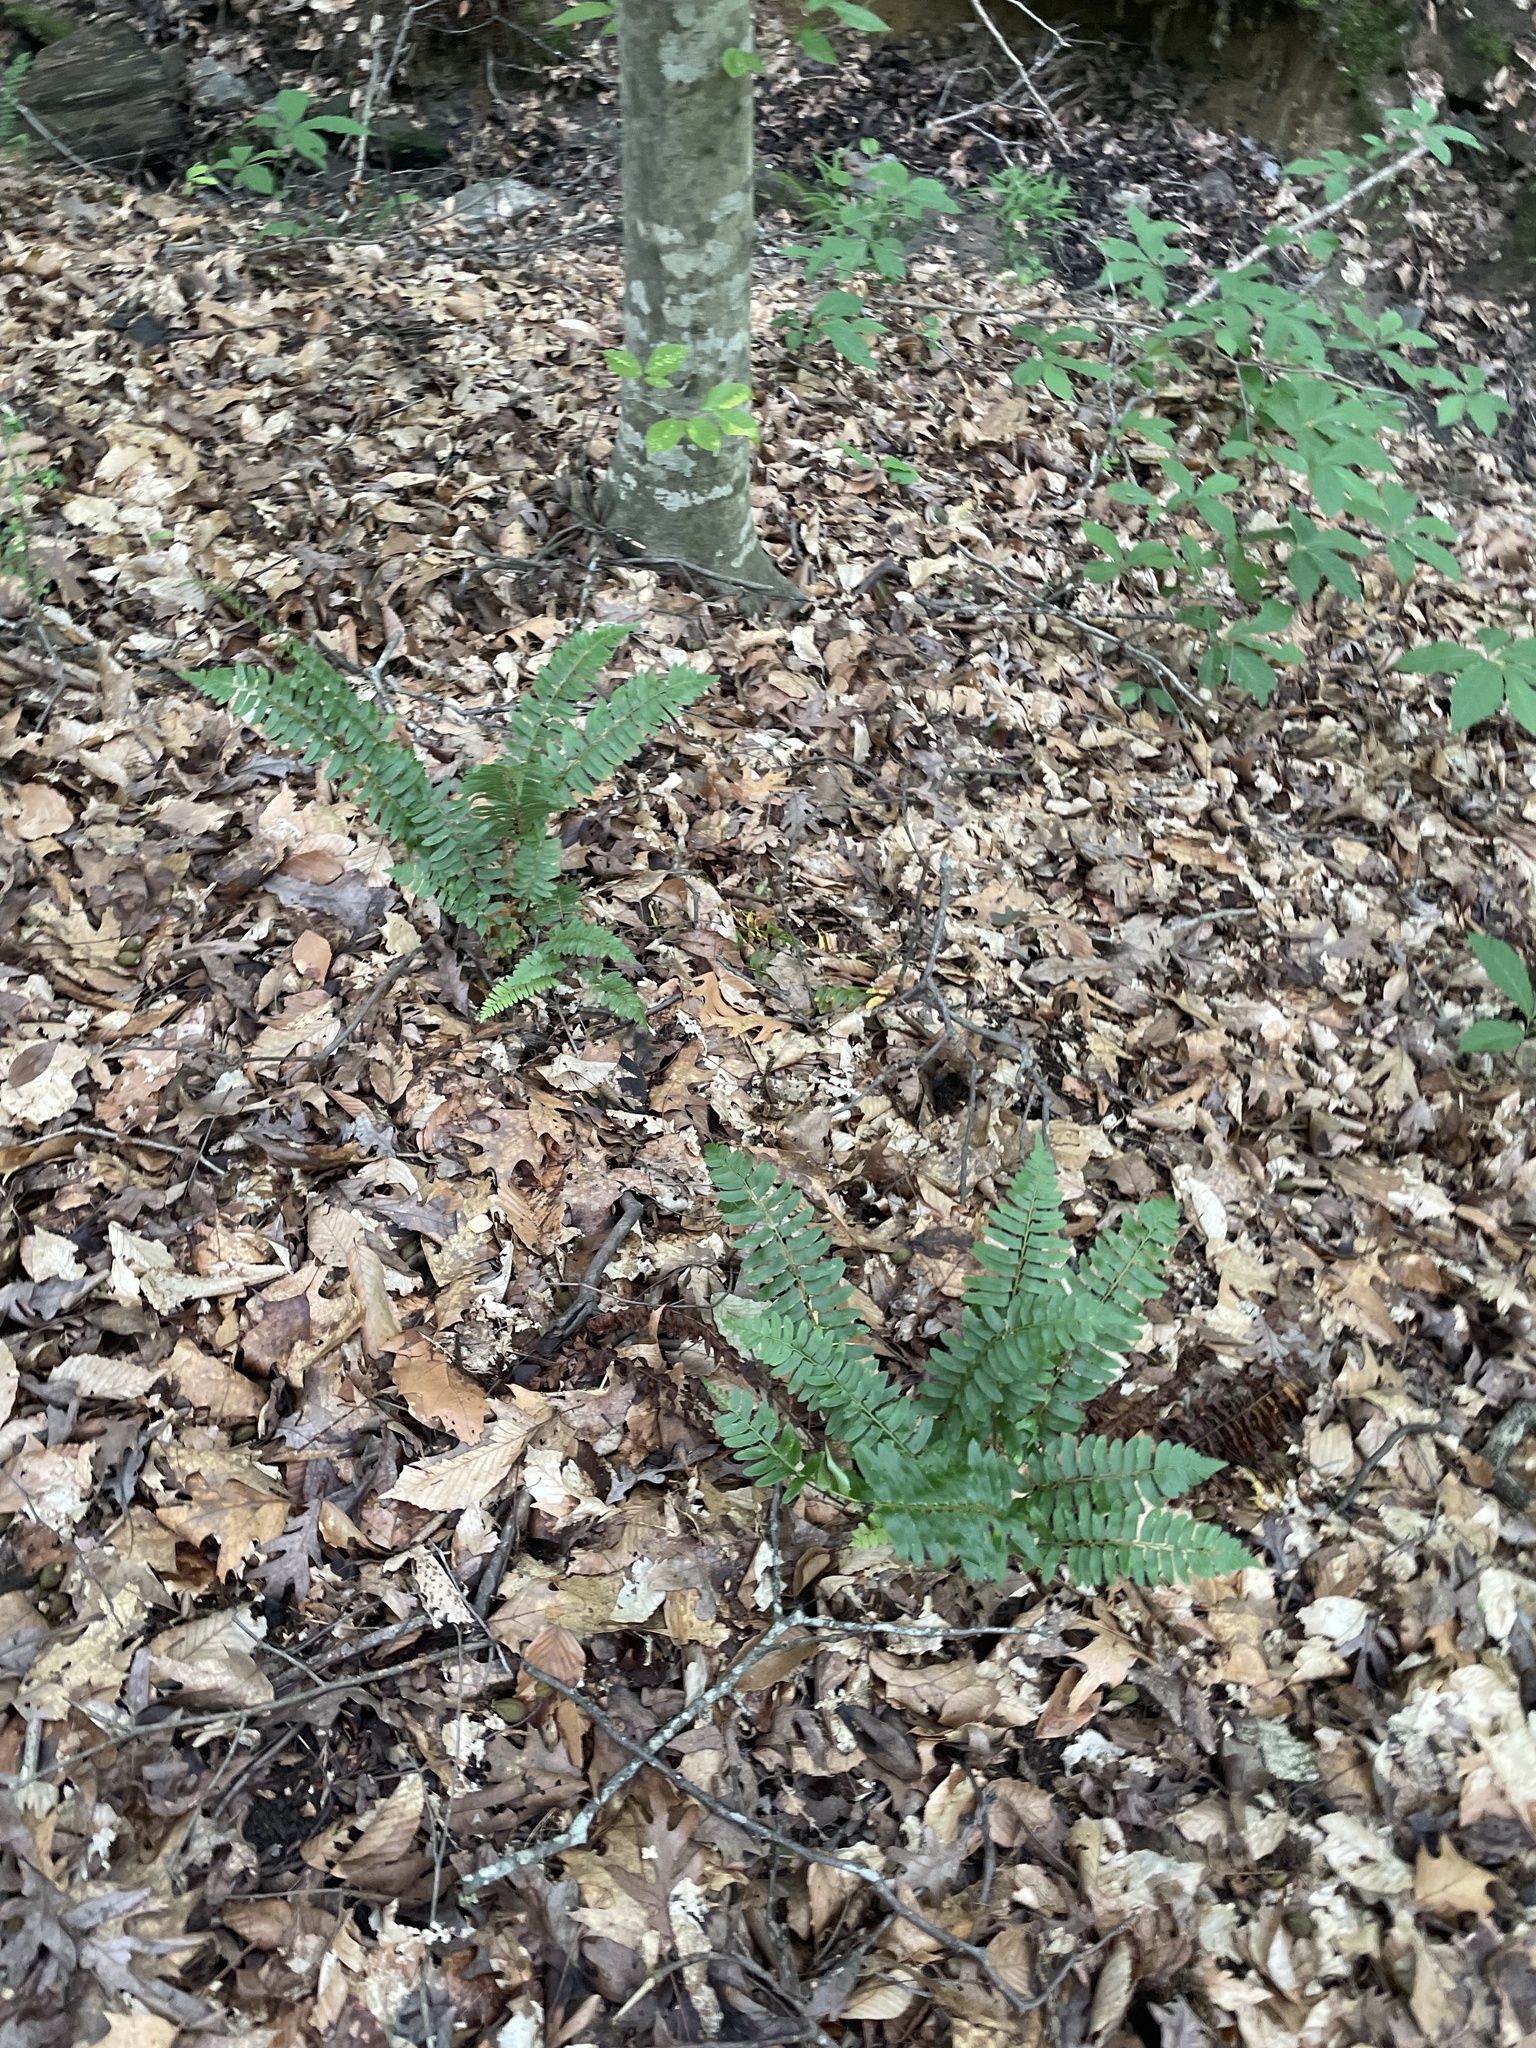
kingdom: Plantae
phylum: Tracheophyta
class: Polypodiopsida
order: Polypodiales
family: Dryopteridaceae
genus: Polystichum
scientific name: Polystichum acrostichoides
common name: Christmas fern
